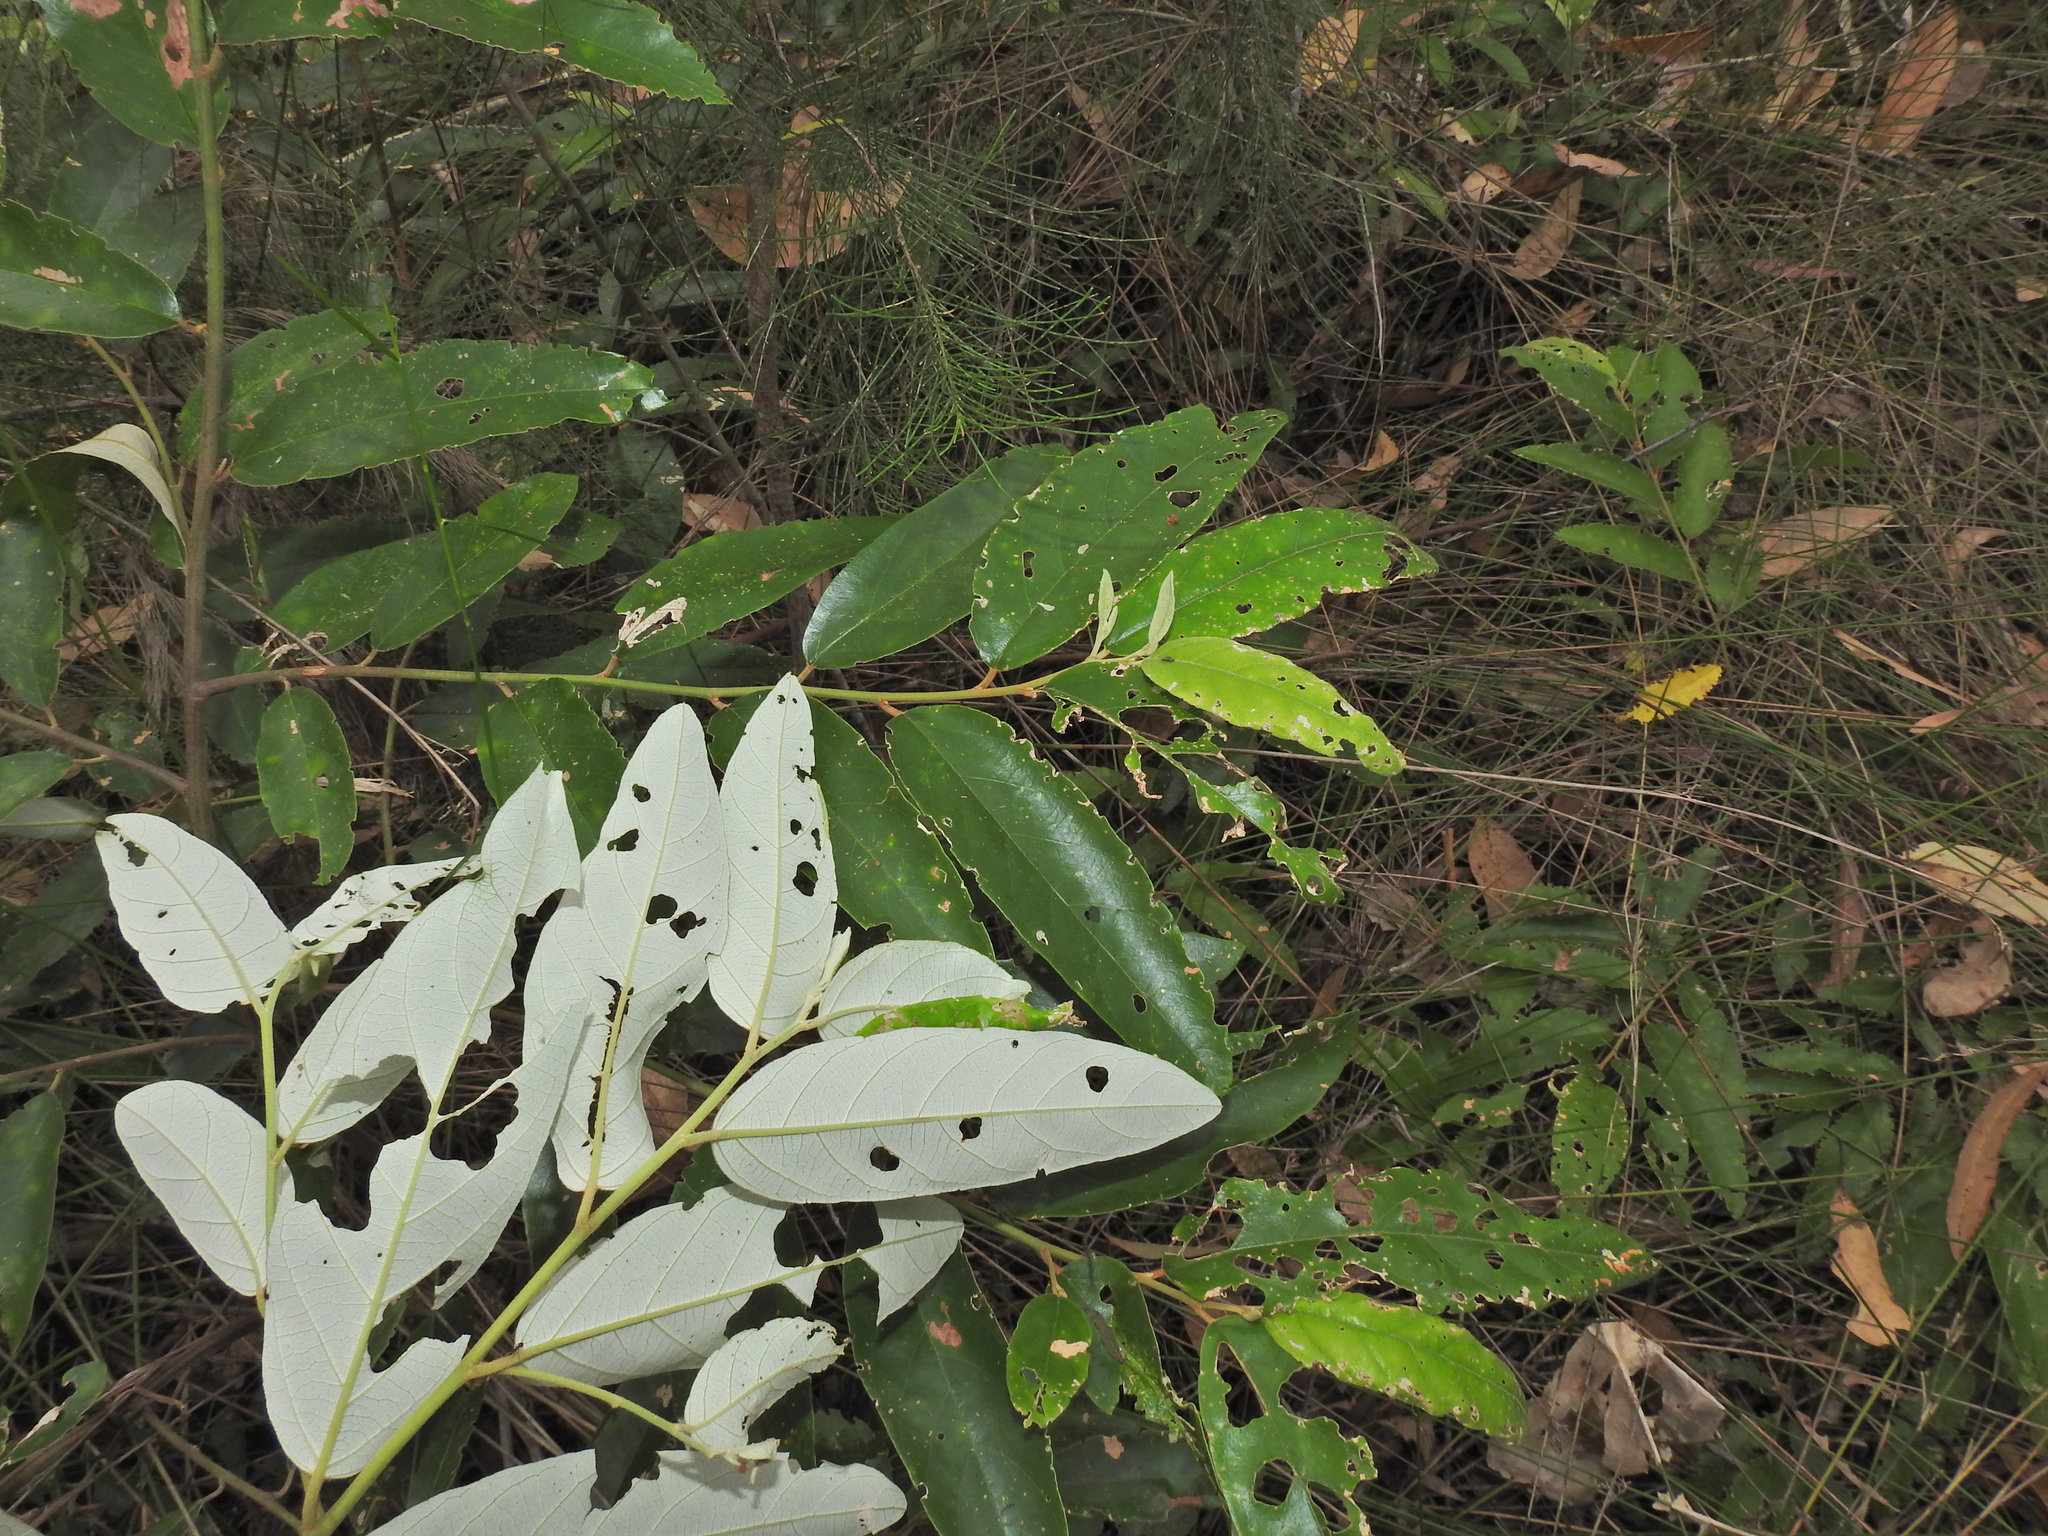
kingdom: Plantae
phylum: Tracheophyta
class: Magnoliopsida
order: Rosales
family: Rhamnaceae
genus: Alphitonia
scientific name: Alphitonia excelsa
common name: Red ash
